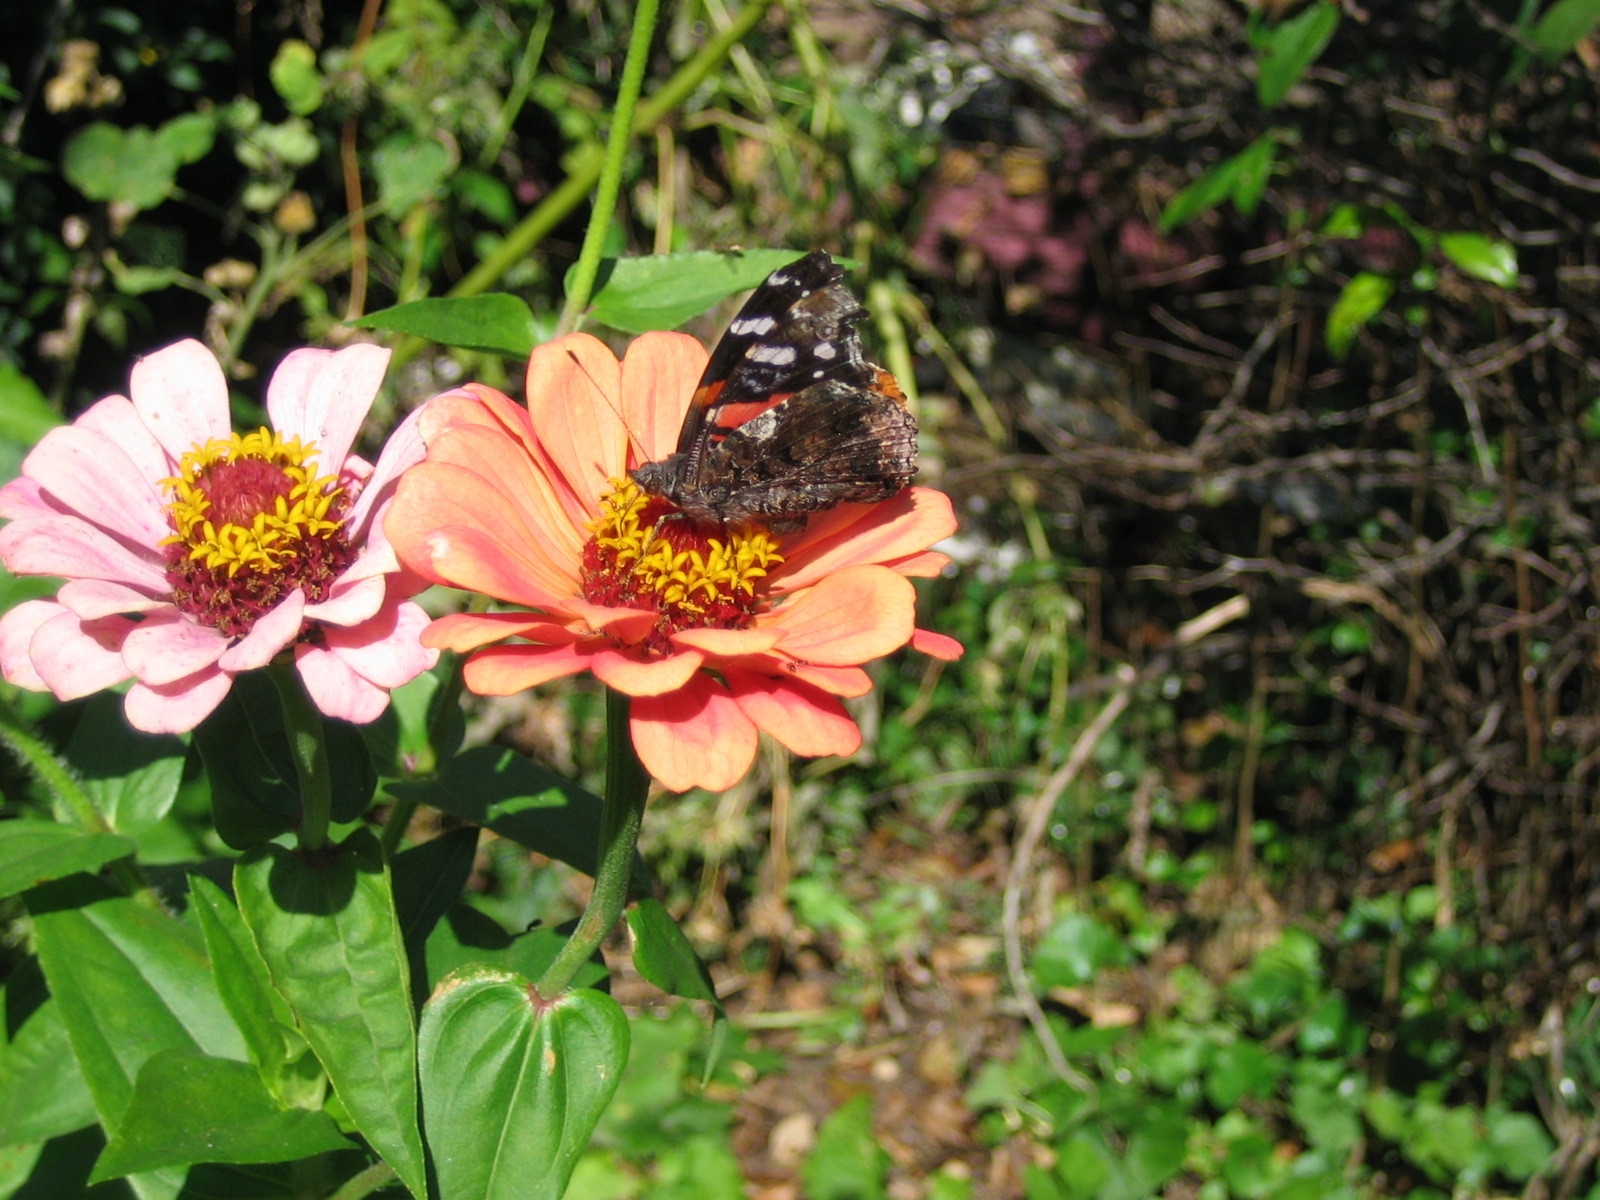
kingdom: Animalia
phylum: Arthropoda
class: Insecta
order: Lepidoptera
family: Nymphalidae
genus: Vanessa
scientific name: Vanessa atalanta
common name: Red admiral
